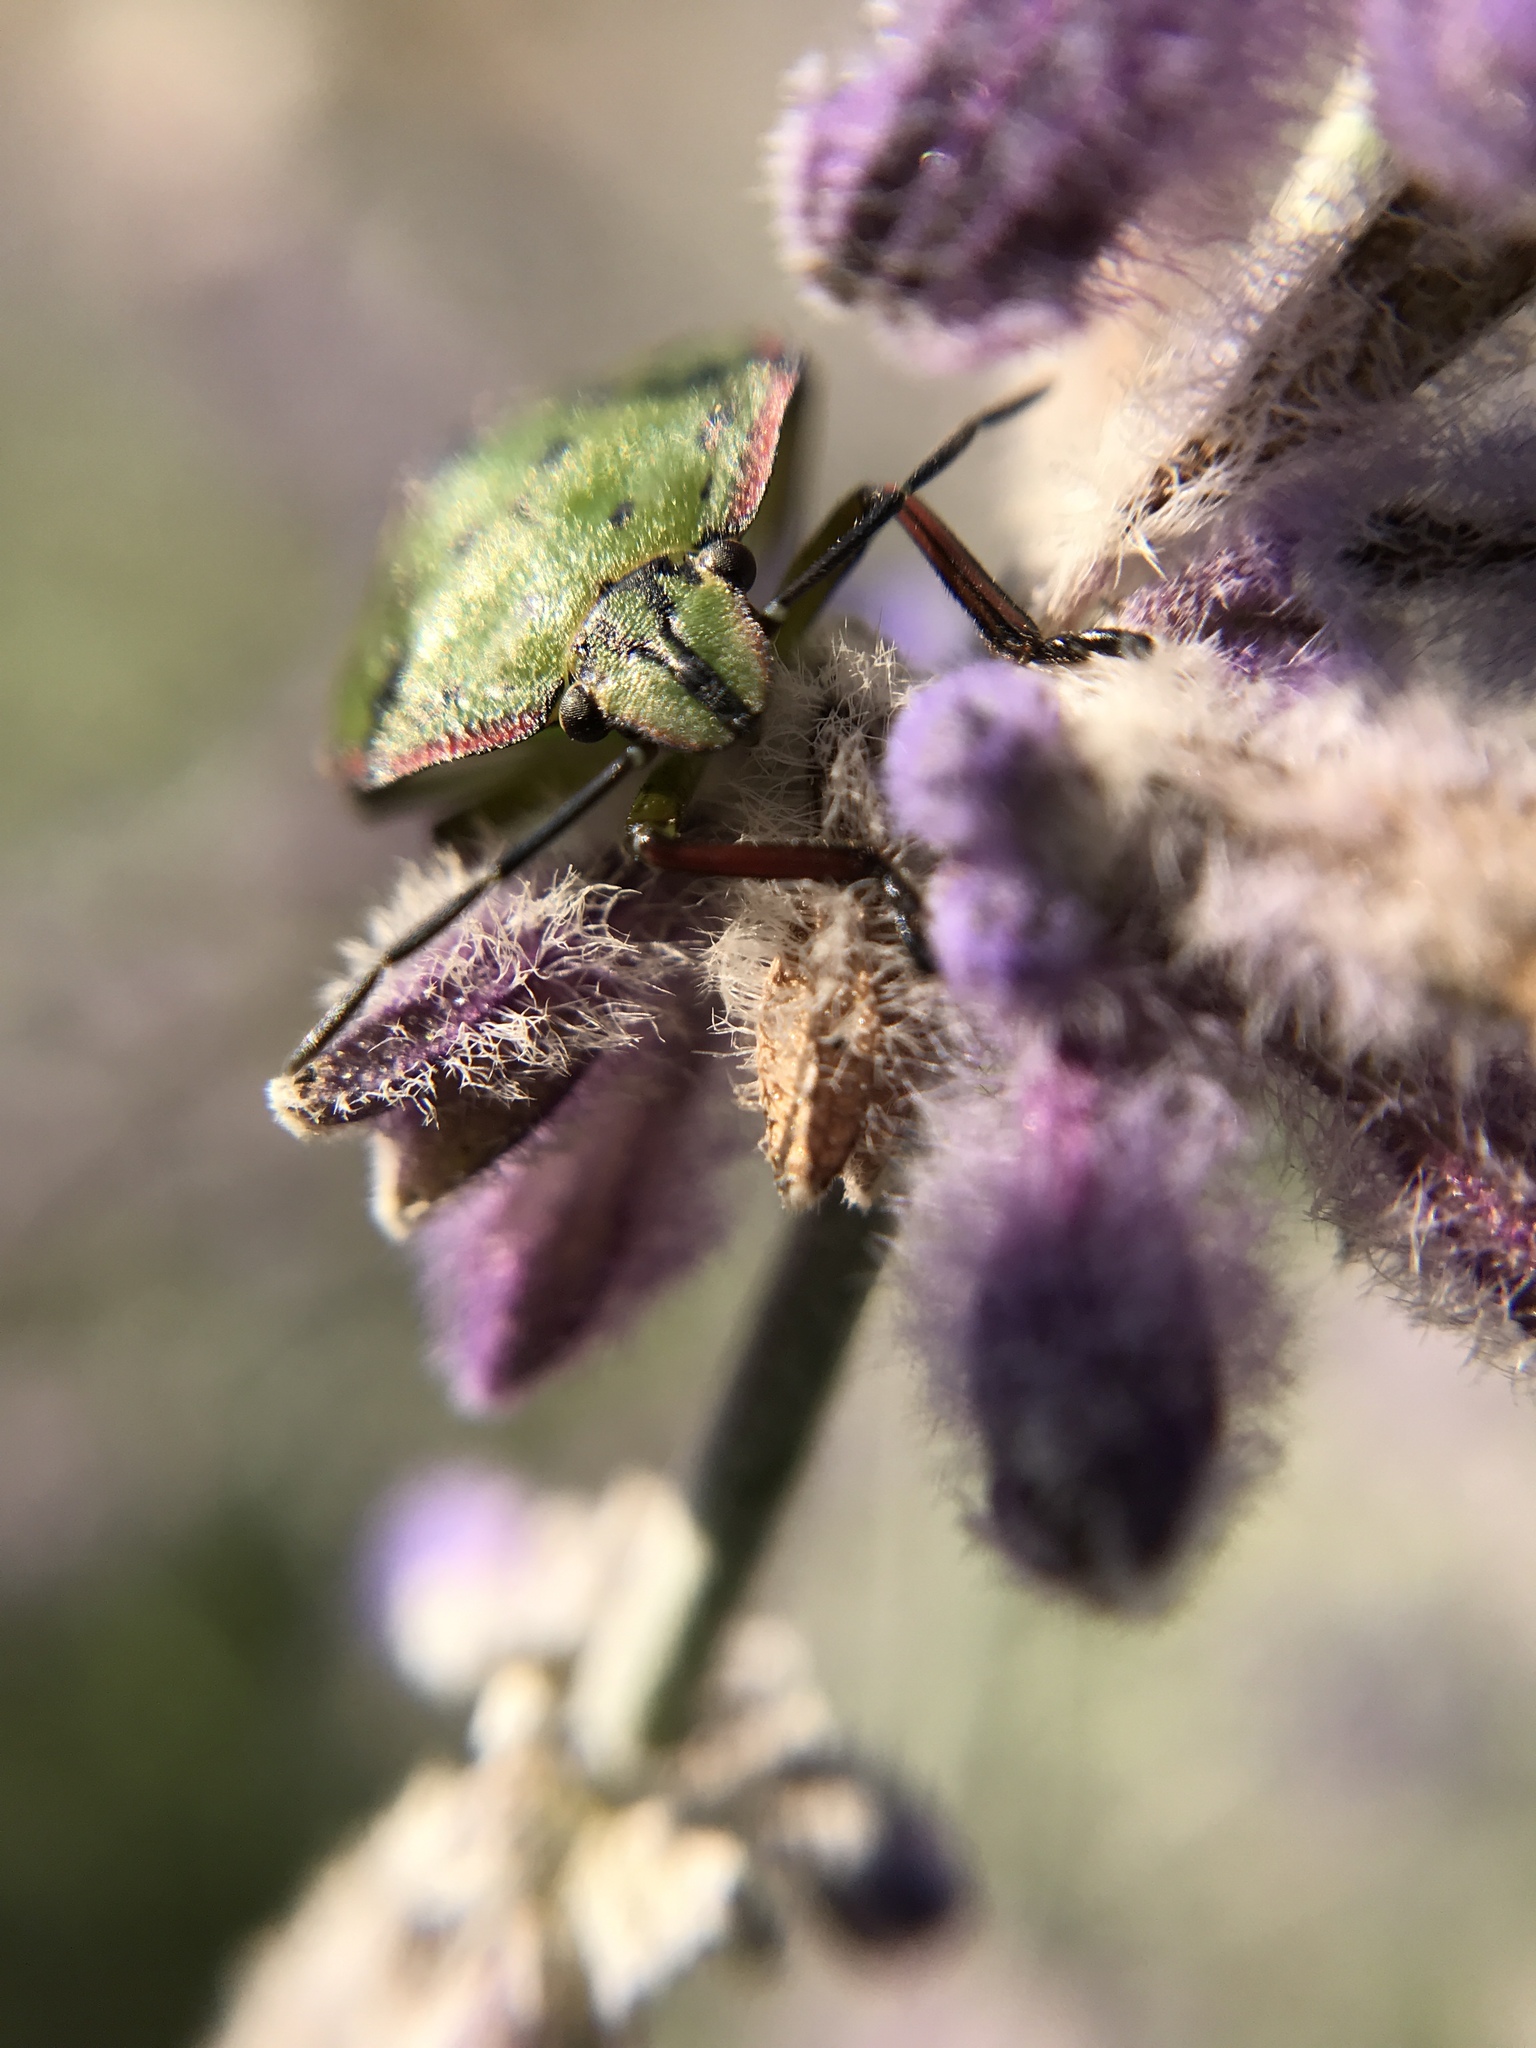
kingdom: Animalia
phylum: Arthropoda
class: Insecta
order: Hemiptera
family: Pentatomidae
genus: Nezara
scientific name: Nezara viridula
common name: Southern green stink bug
